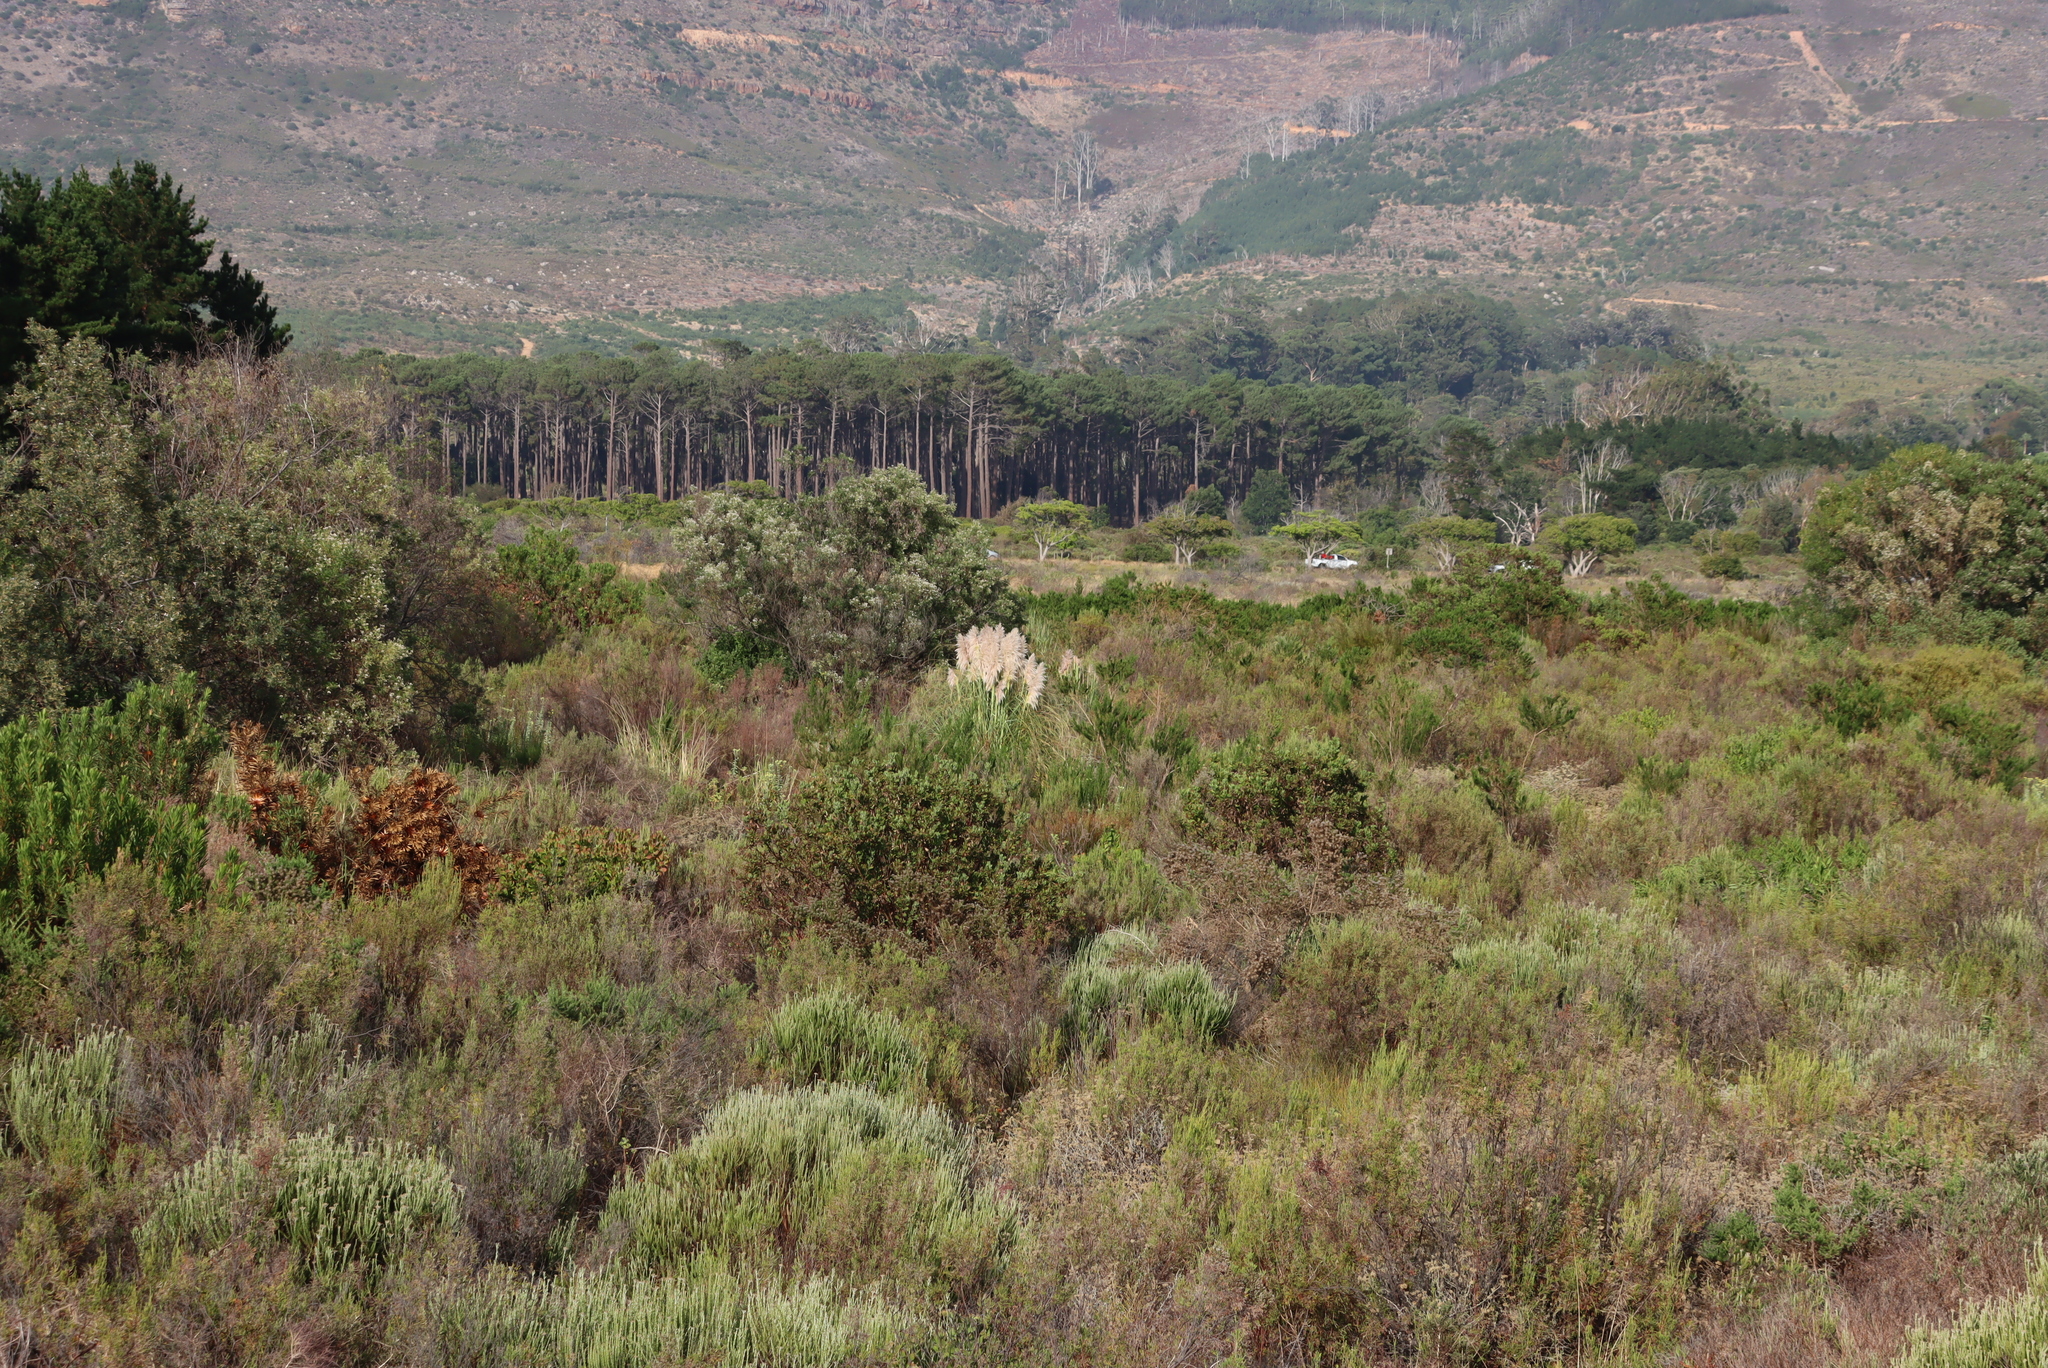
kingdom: Plantae
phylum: Tracheophyta
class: Liliopsida
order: Poales
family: Poaceae
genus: Cortaderia
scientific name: Cortaderia selloana
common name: Uruguayan pampas grass
